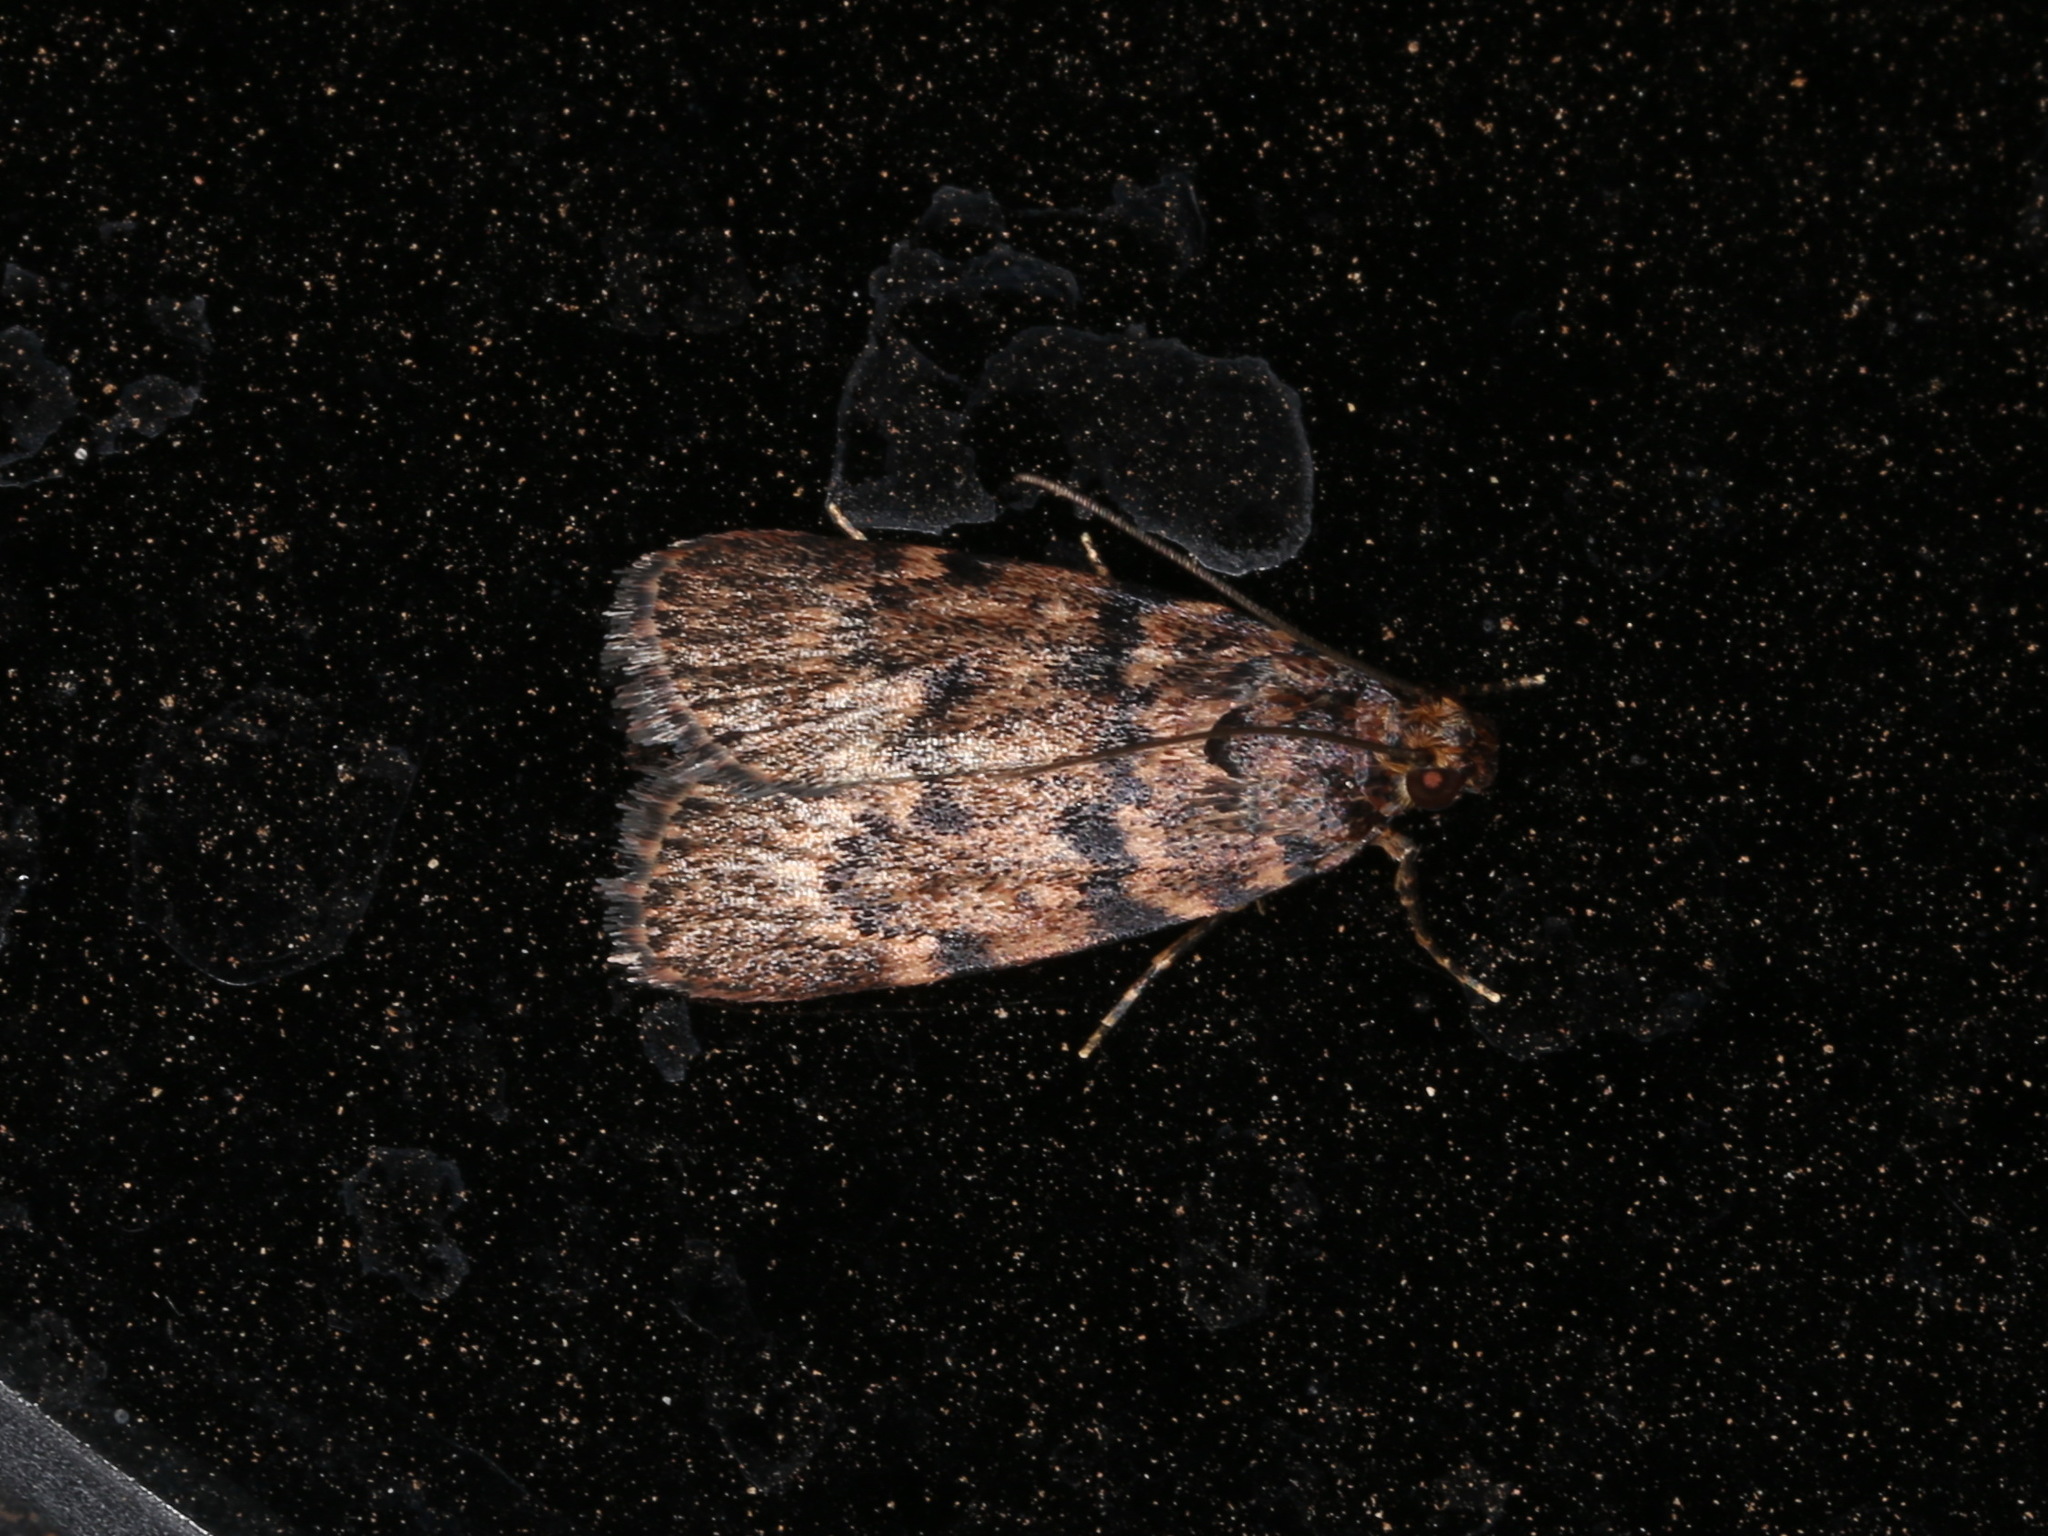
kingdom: Animalia
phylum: Arthropoda
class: Insecta
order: Lepidoptera
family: Pyralidae
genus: Mimaglossa
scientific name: Mimaglossa nauplialis
